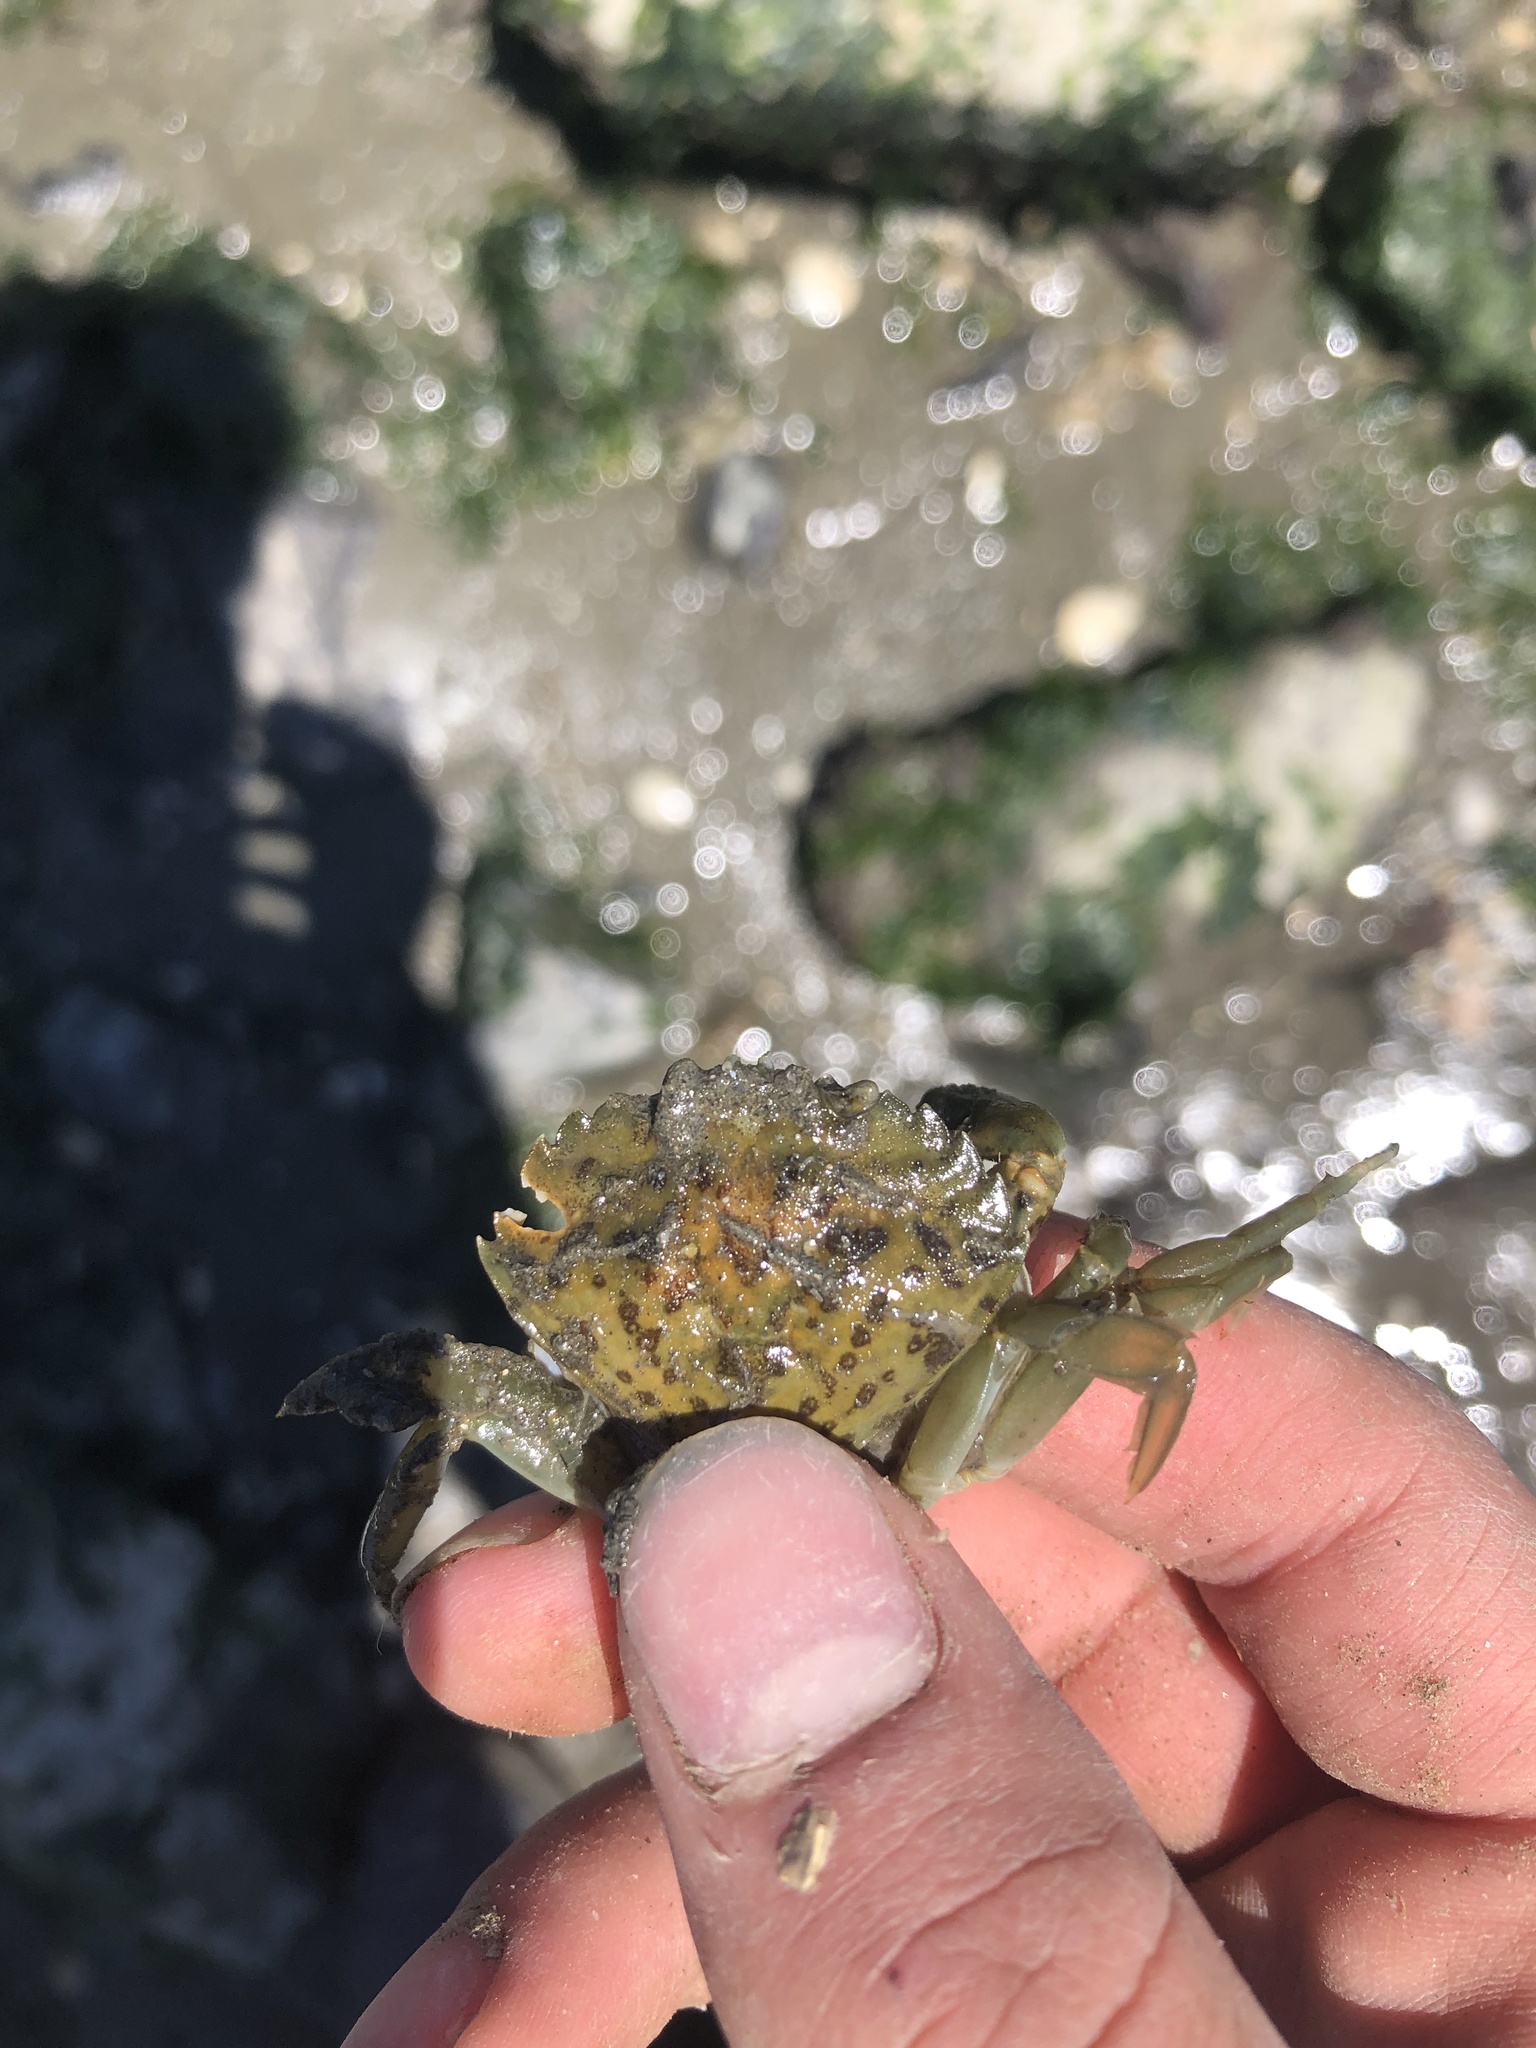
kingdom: Animalia
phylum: Arthropoda
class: Malacostraca
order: Decapoda
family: Carcinidae
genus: Carcinus
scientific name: Carcinus maenas
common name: European green crab
